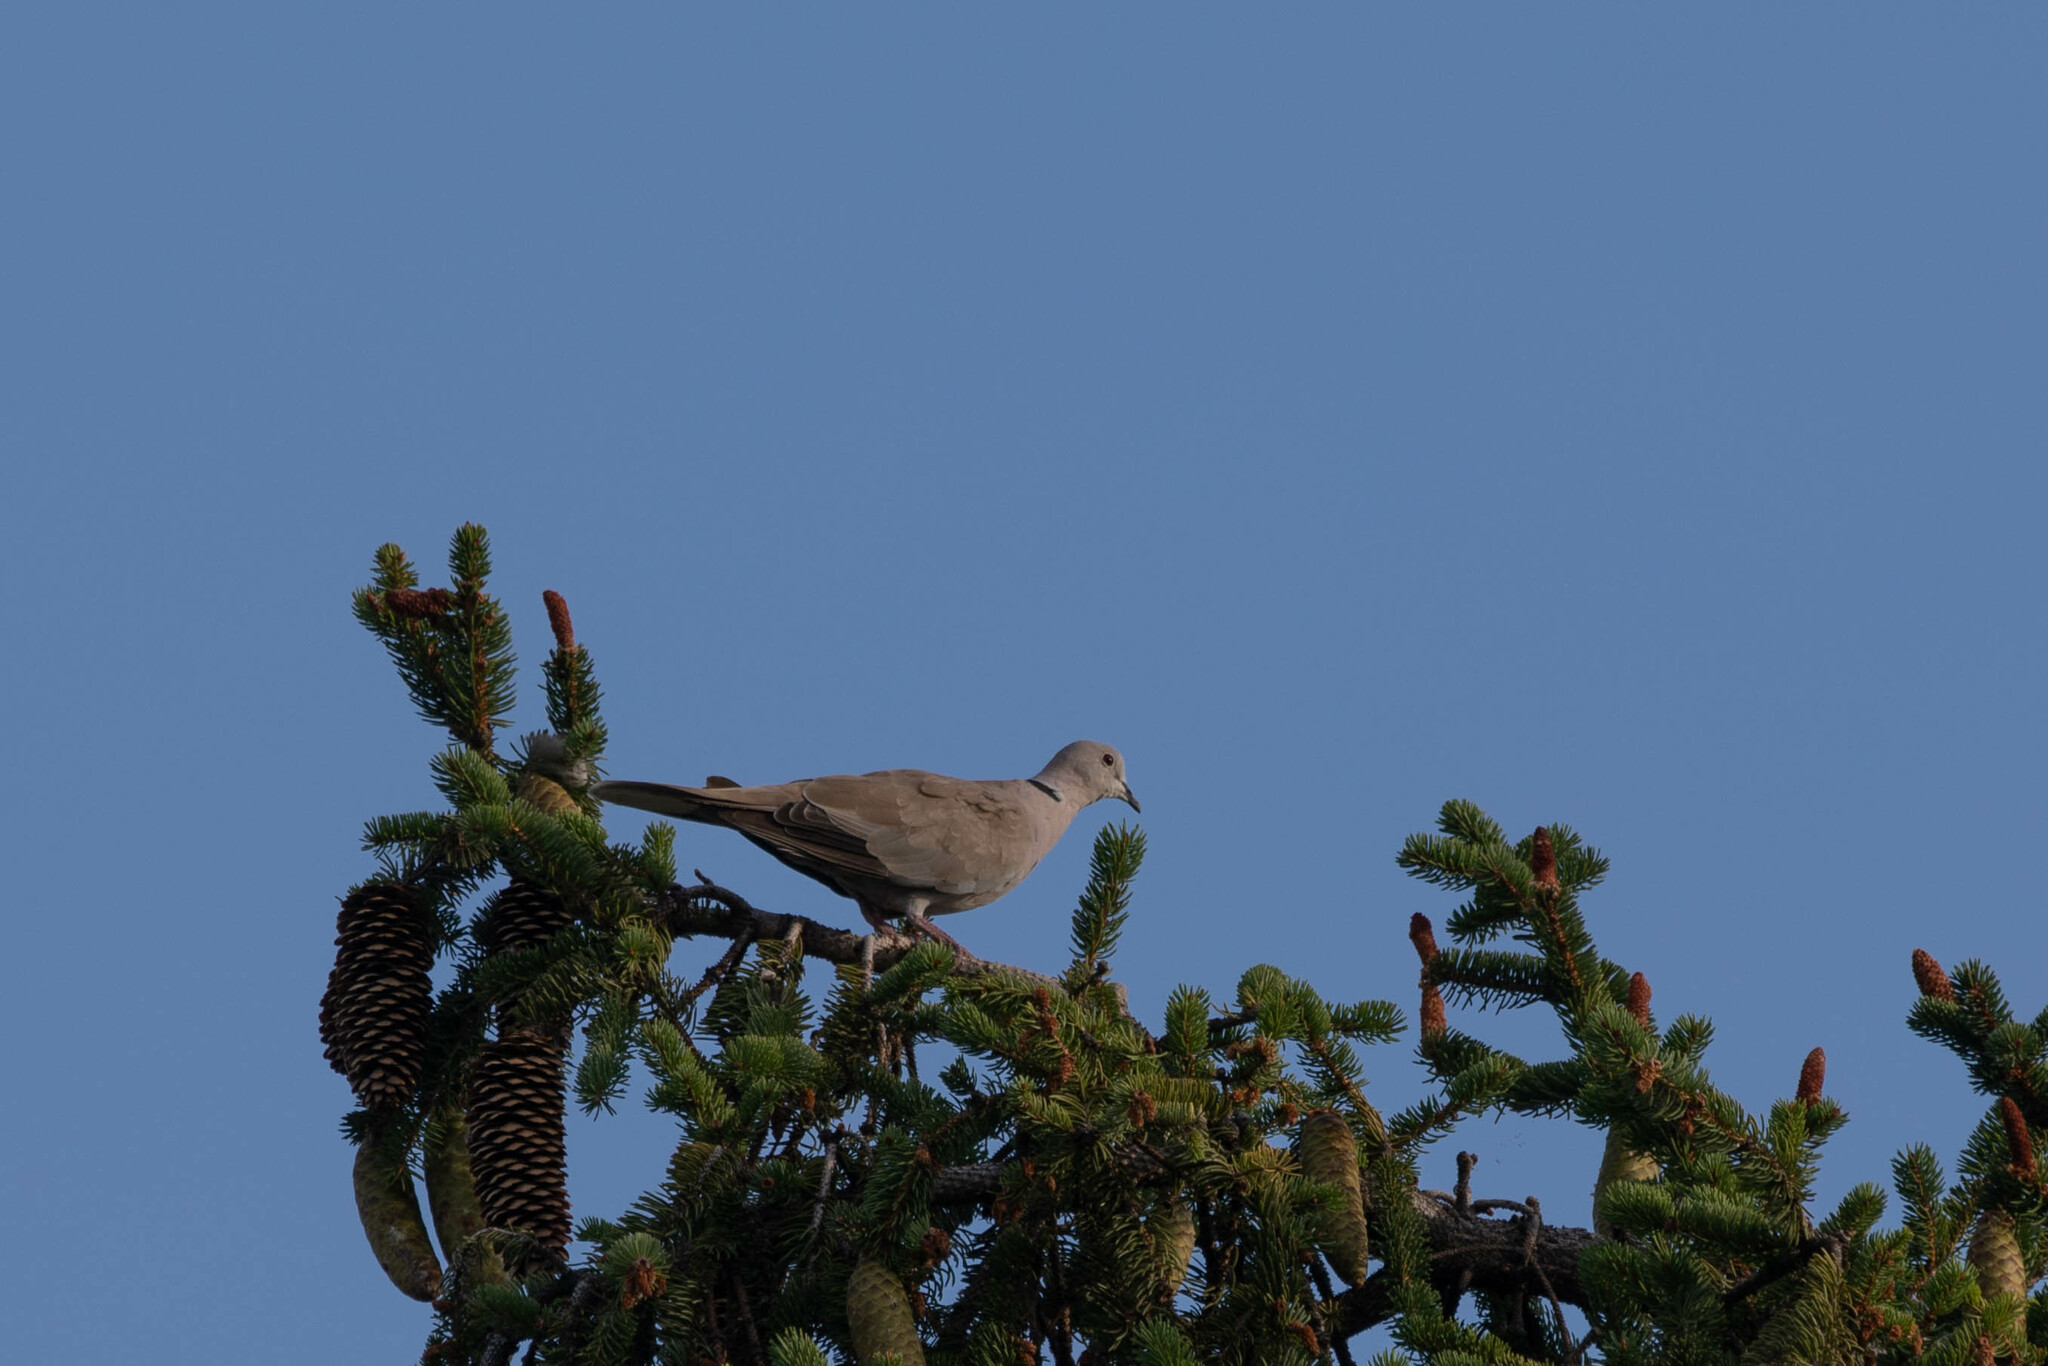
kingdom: Animalia
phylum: Chordata
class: Aves
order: Columbiformes
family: Columbidae
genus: Streptopelia
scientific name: Streptopelia decaocto
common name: Eurasian collared dove
